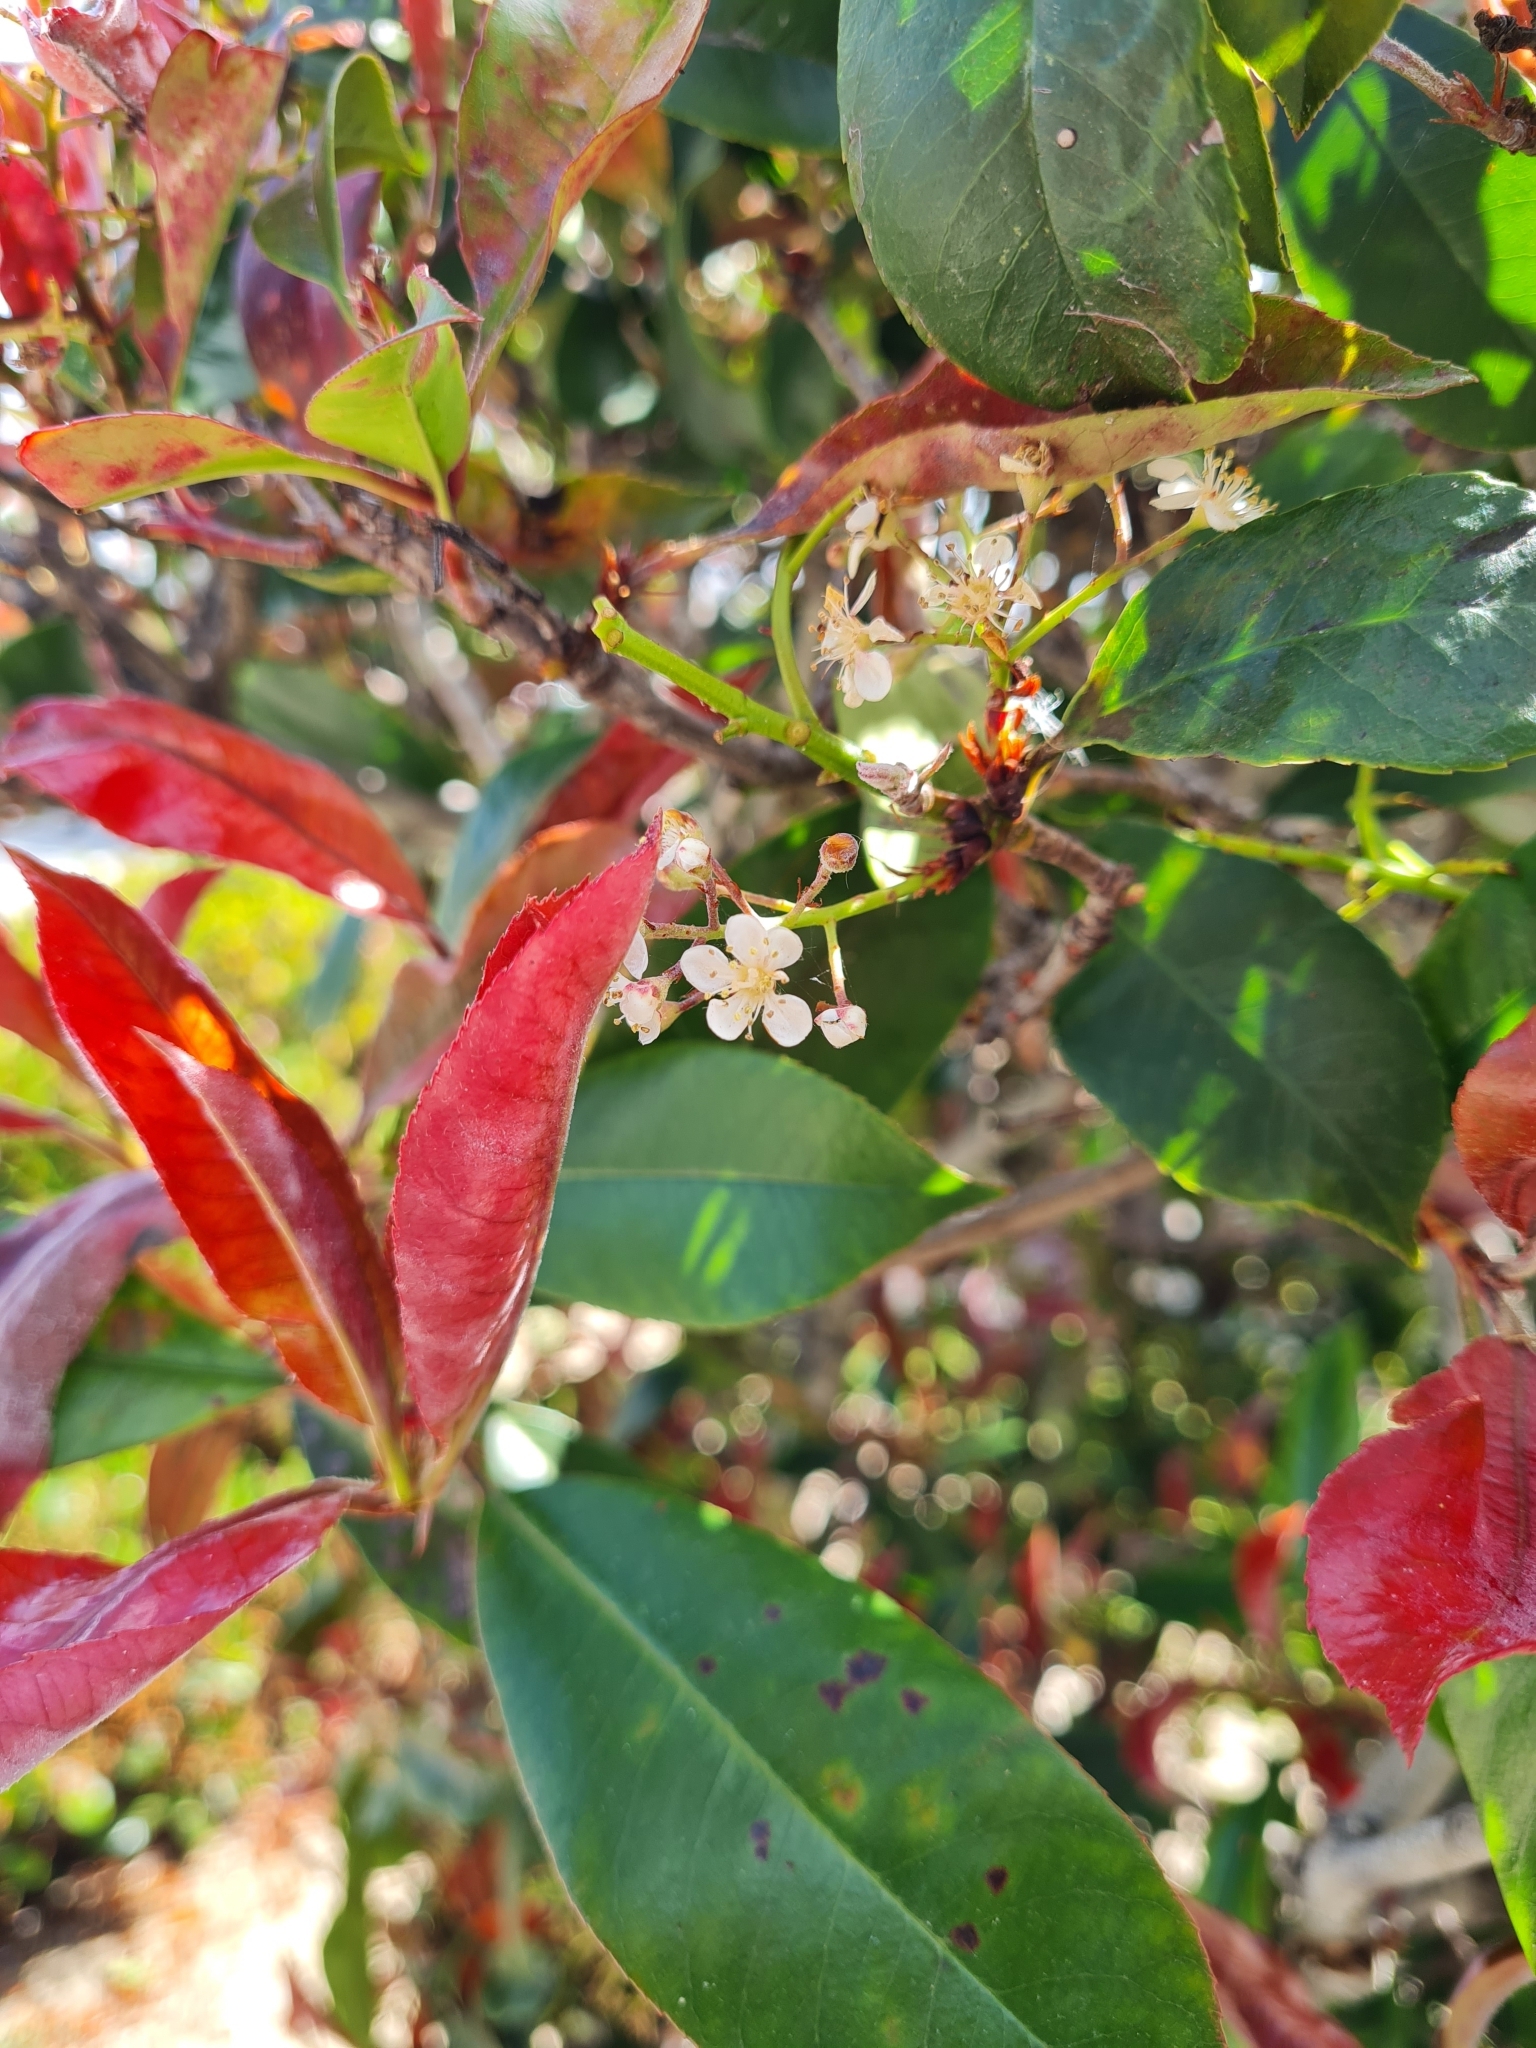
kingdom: Plantae
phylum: Tracheophyta
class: Magnoliopsida
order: Rosales
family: Rosaceae
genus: Heteromeles
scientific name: Heteromeles arbutifolia
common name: California-holly
